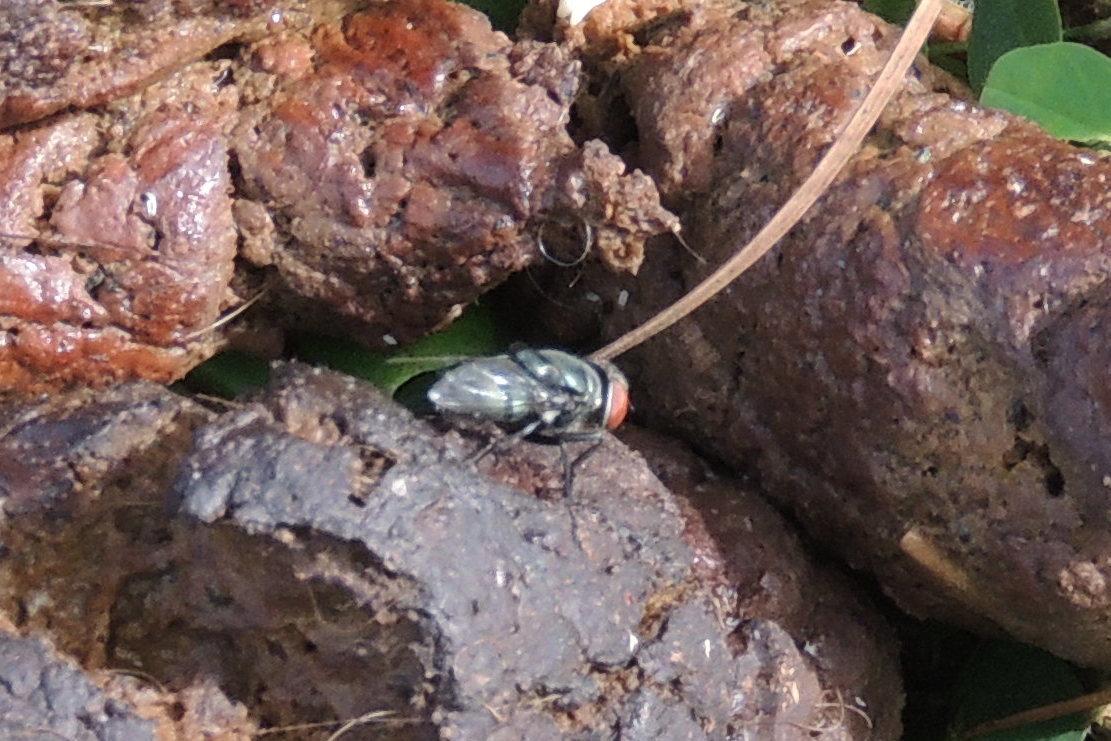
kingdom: Animalia
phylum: Arthropoda
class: Insecta
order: Diptera
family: Calliphoridae
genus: Chrysomya
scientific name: Chrysomya megacephala
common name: Blow fly
